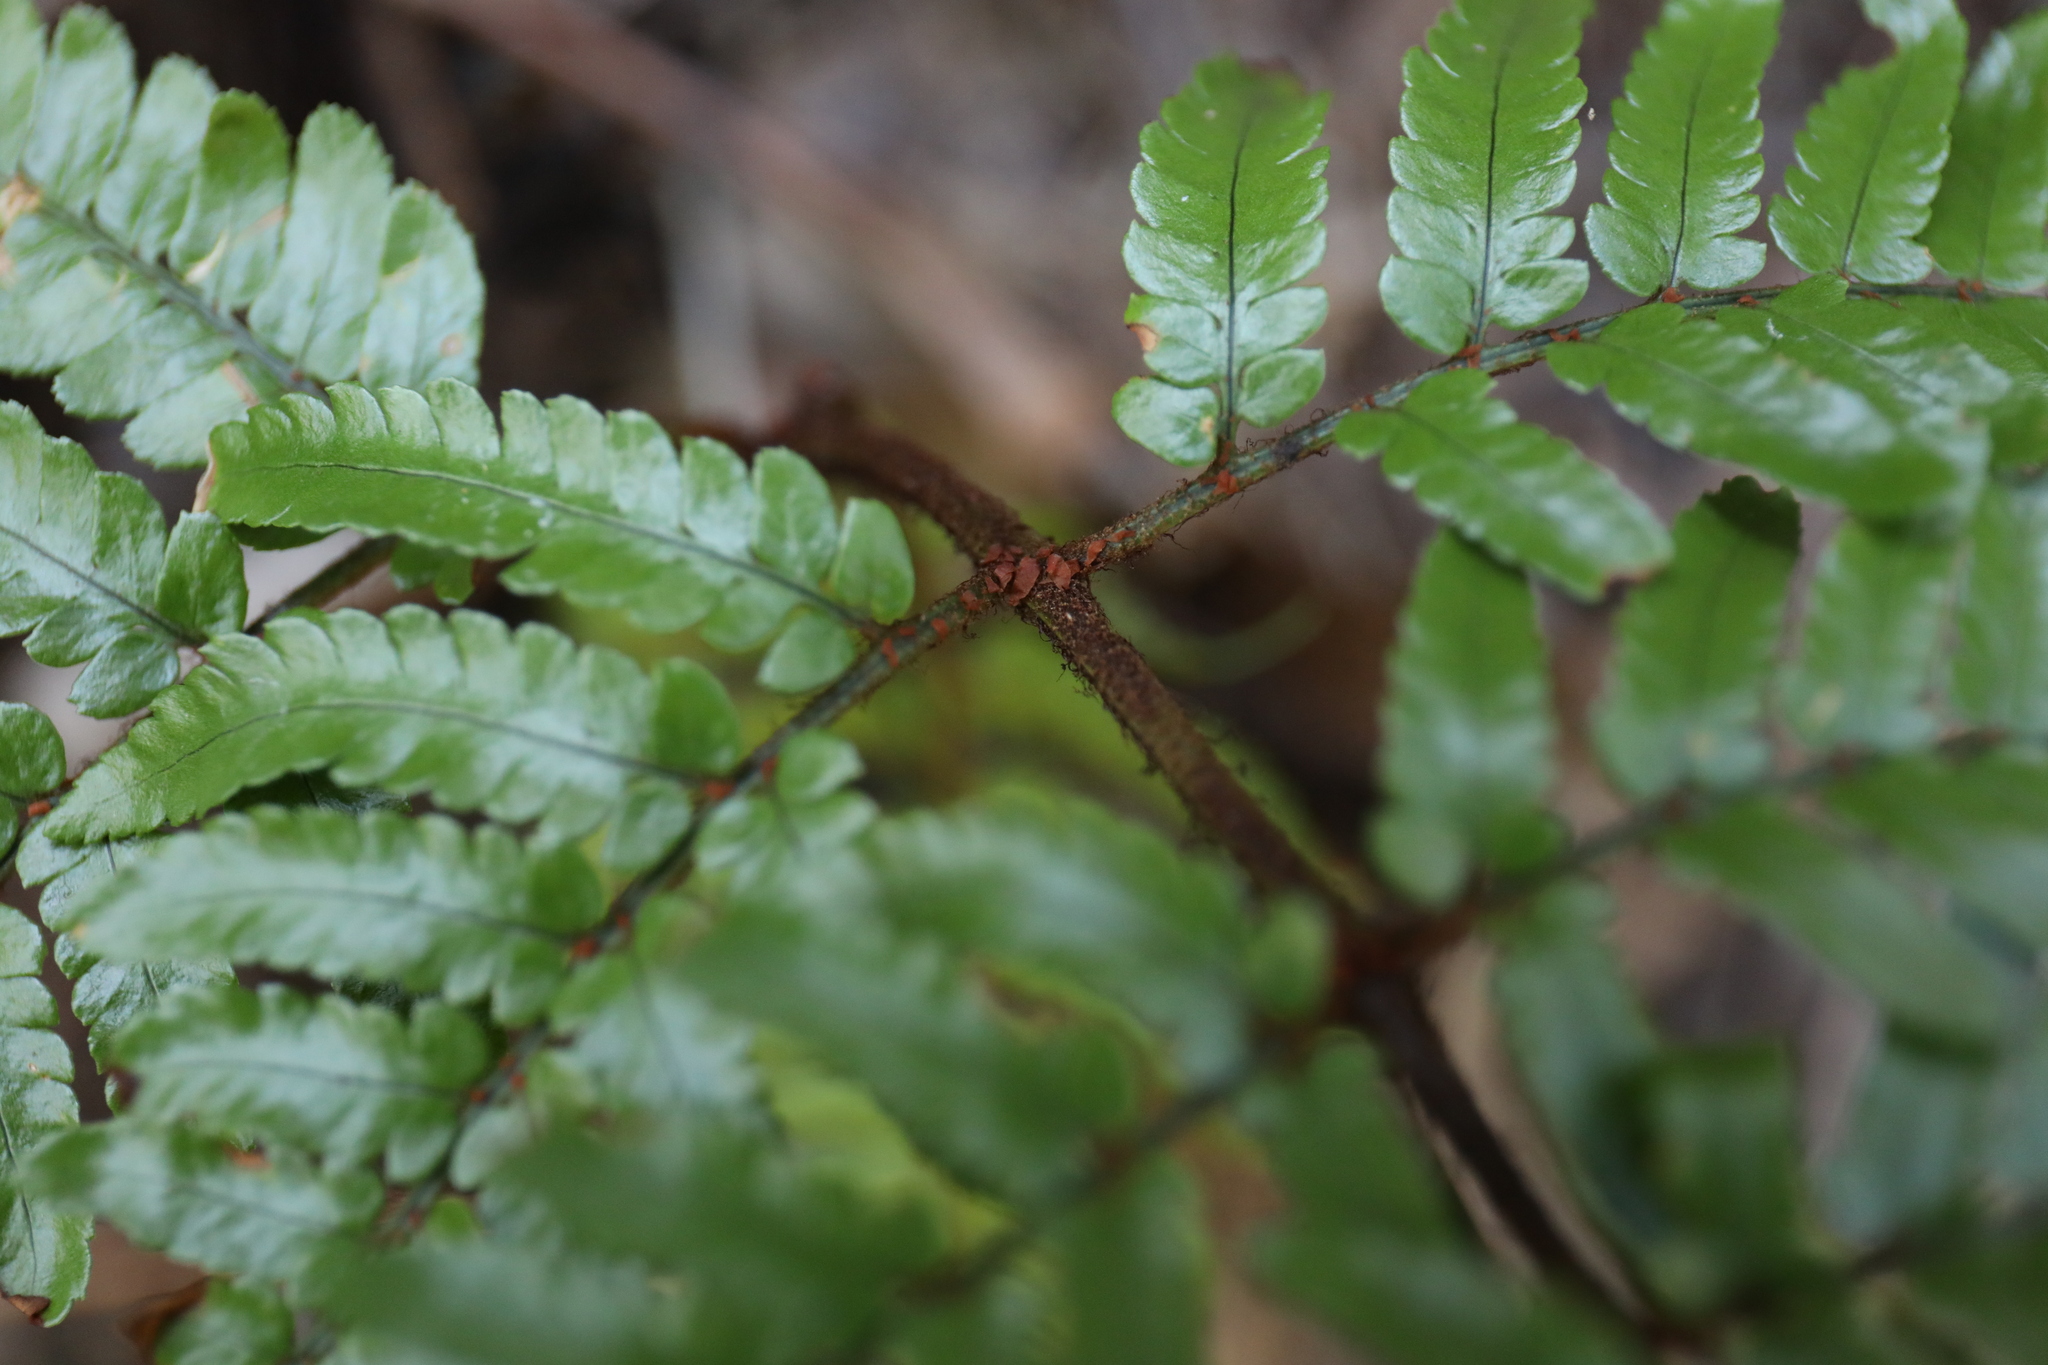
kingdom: Plantae
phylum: Tracheophyta
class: Polypodiopsida
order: Polypodiales
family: Dryopteridaceae
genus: Dryopteris
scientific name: Dryopteris sordidipes
